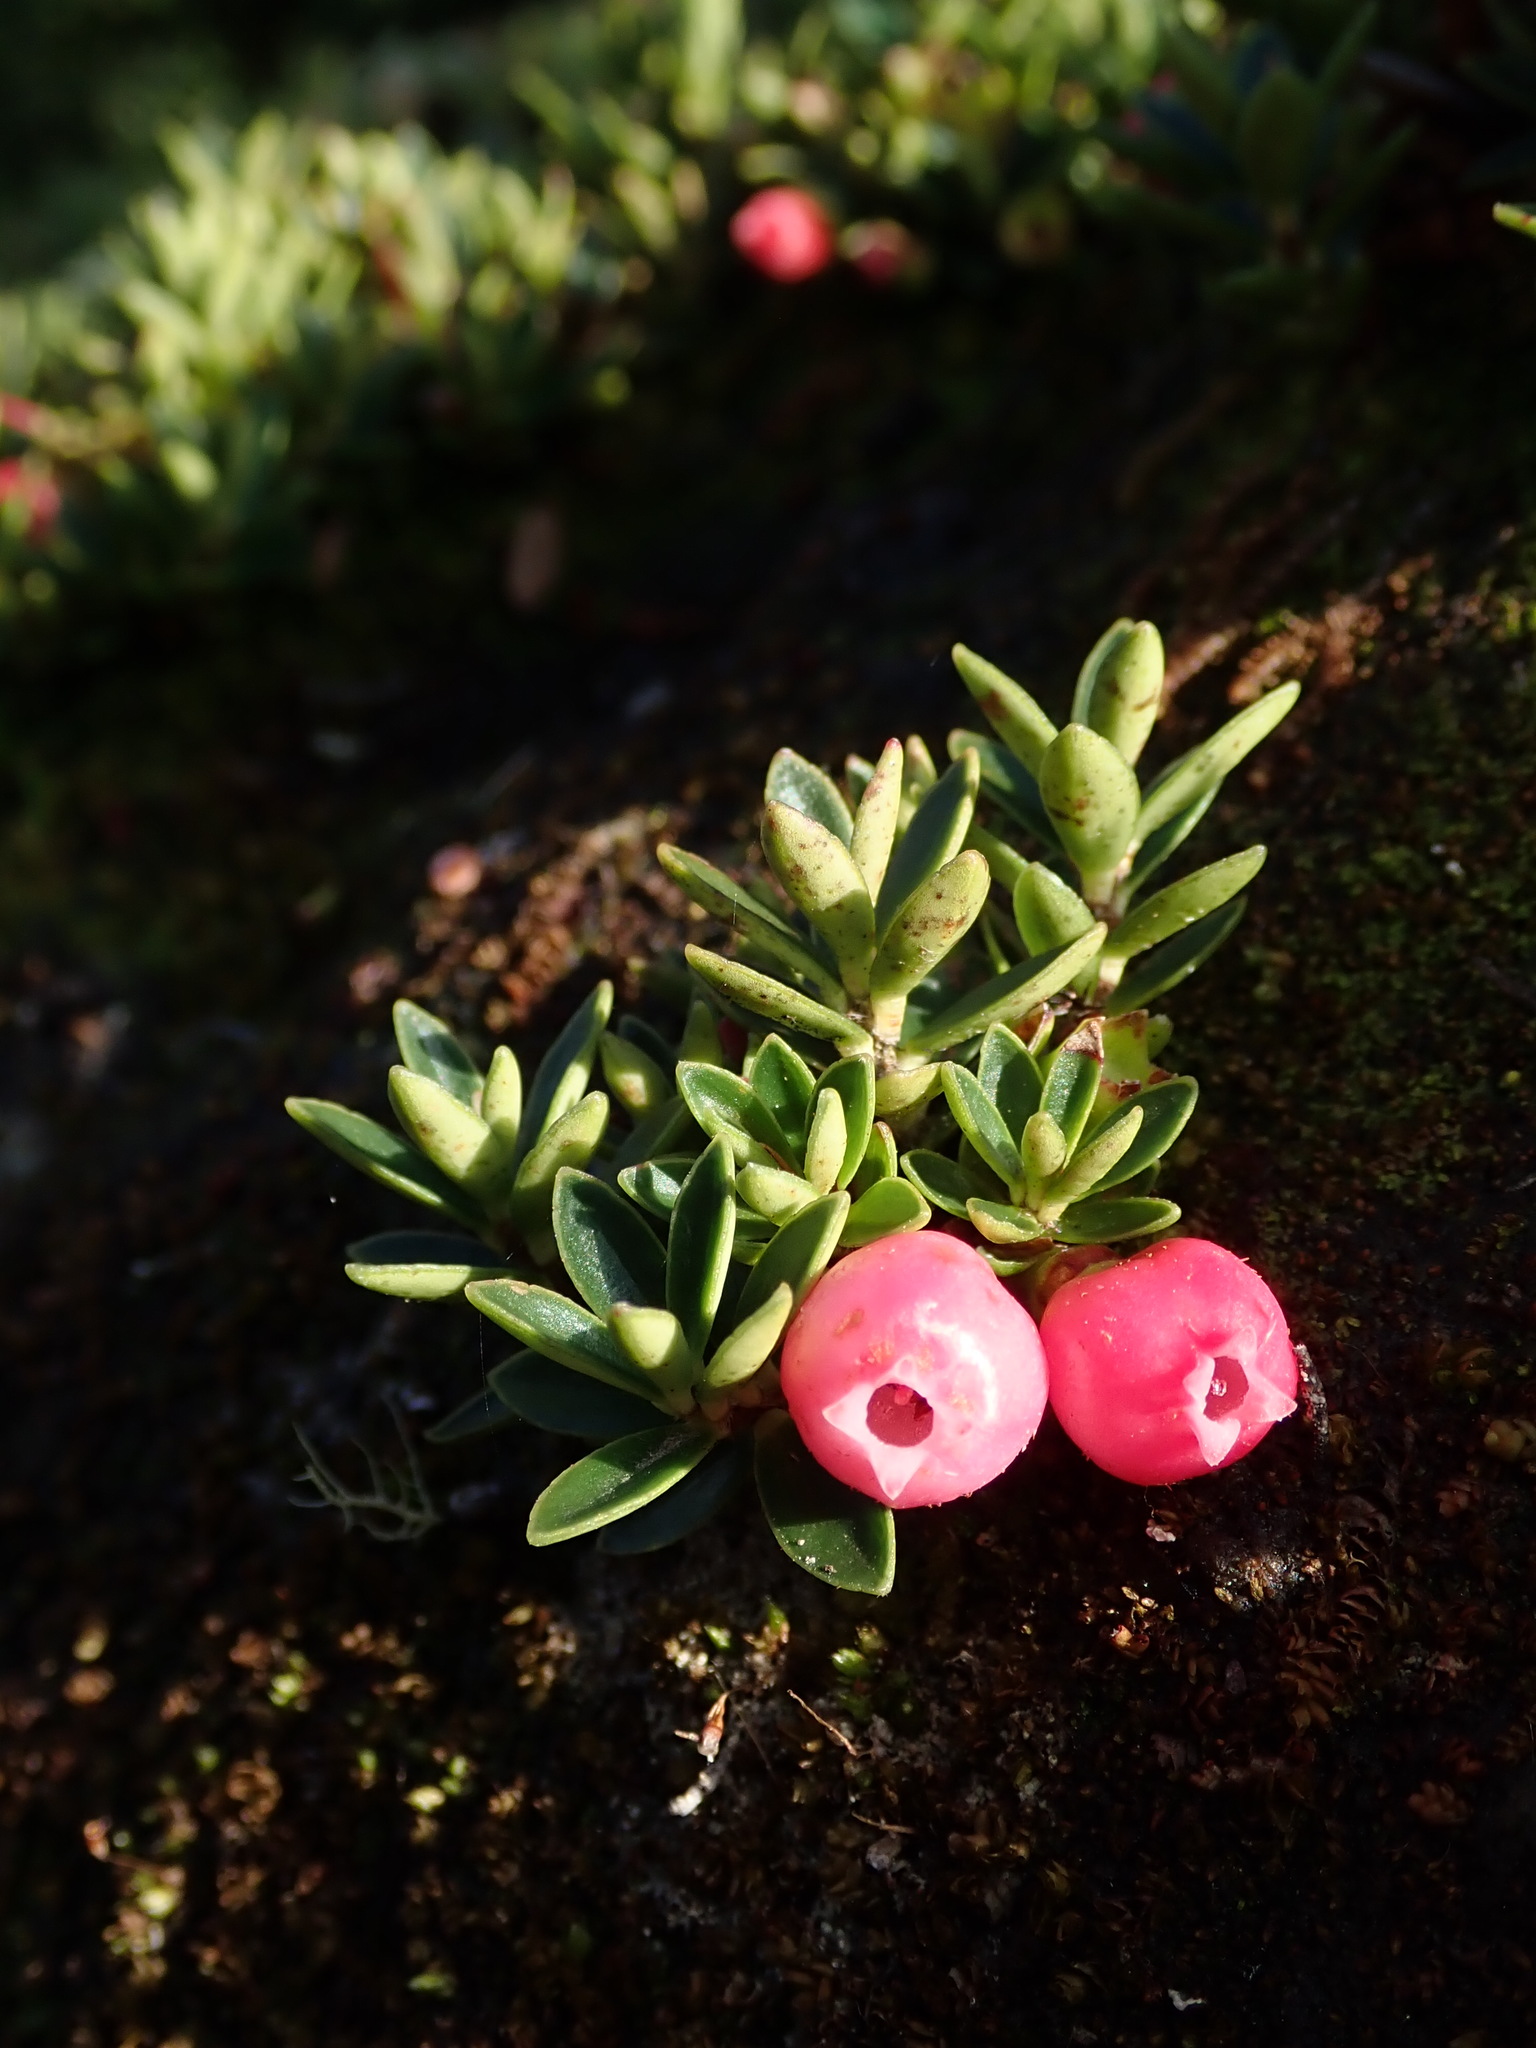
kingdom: Plantae
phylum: Tracheophyta
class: Magnoliopsida
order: Ericales
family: Ericaceae
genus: Disterigma
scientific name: Disterigma empetrifolium
